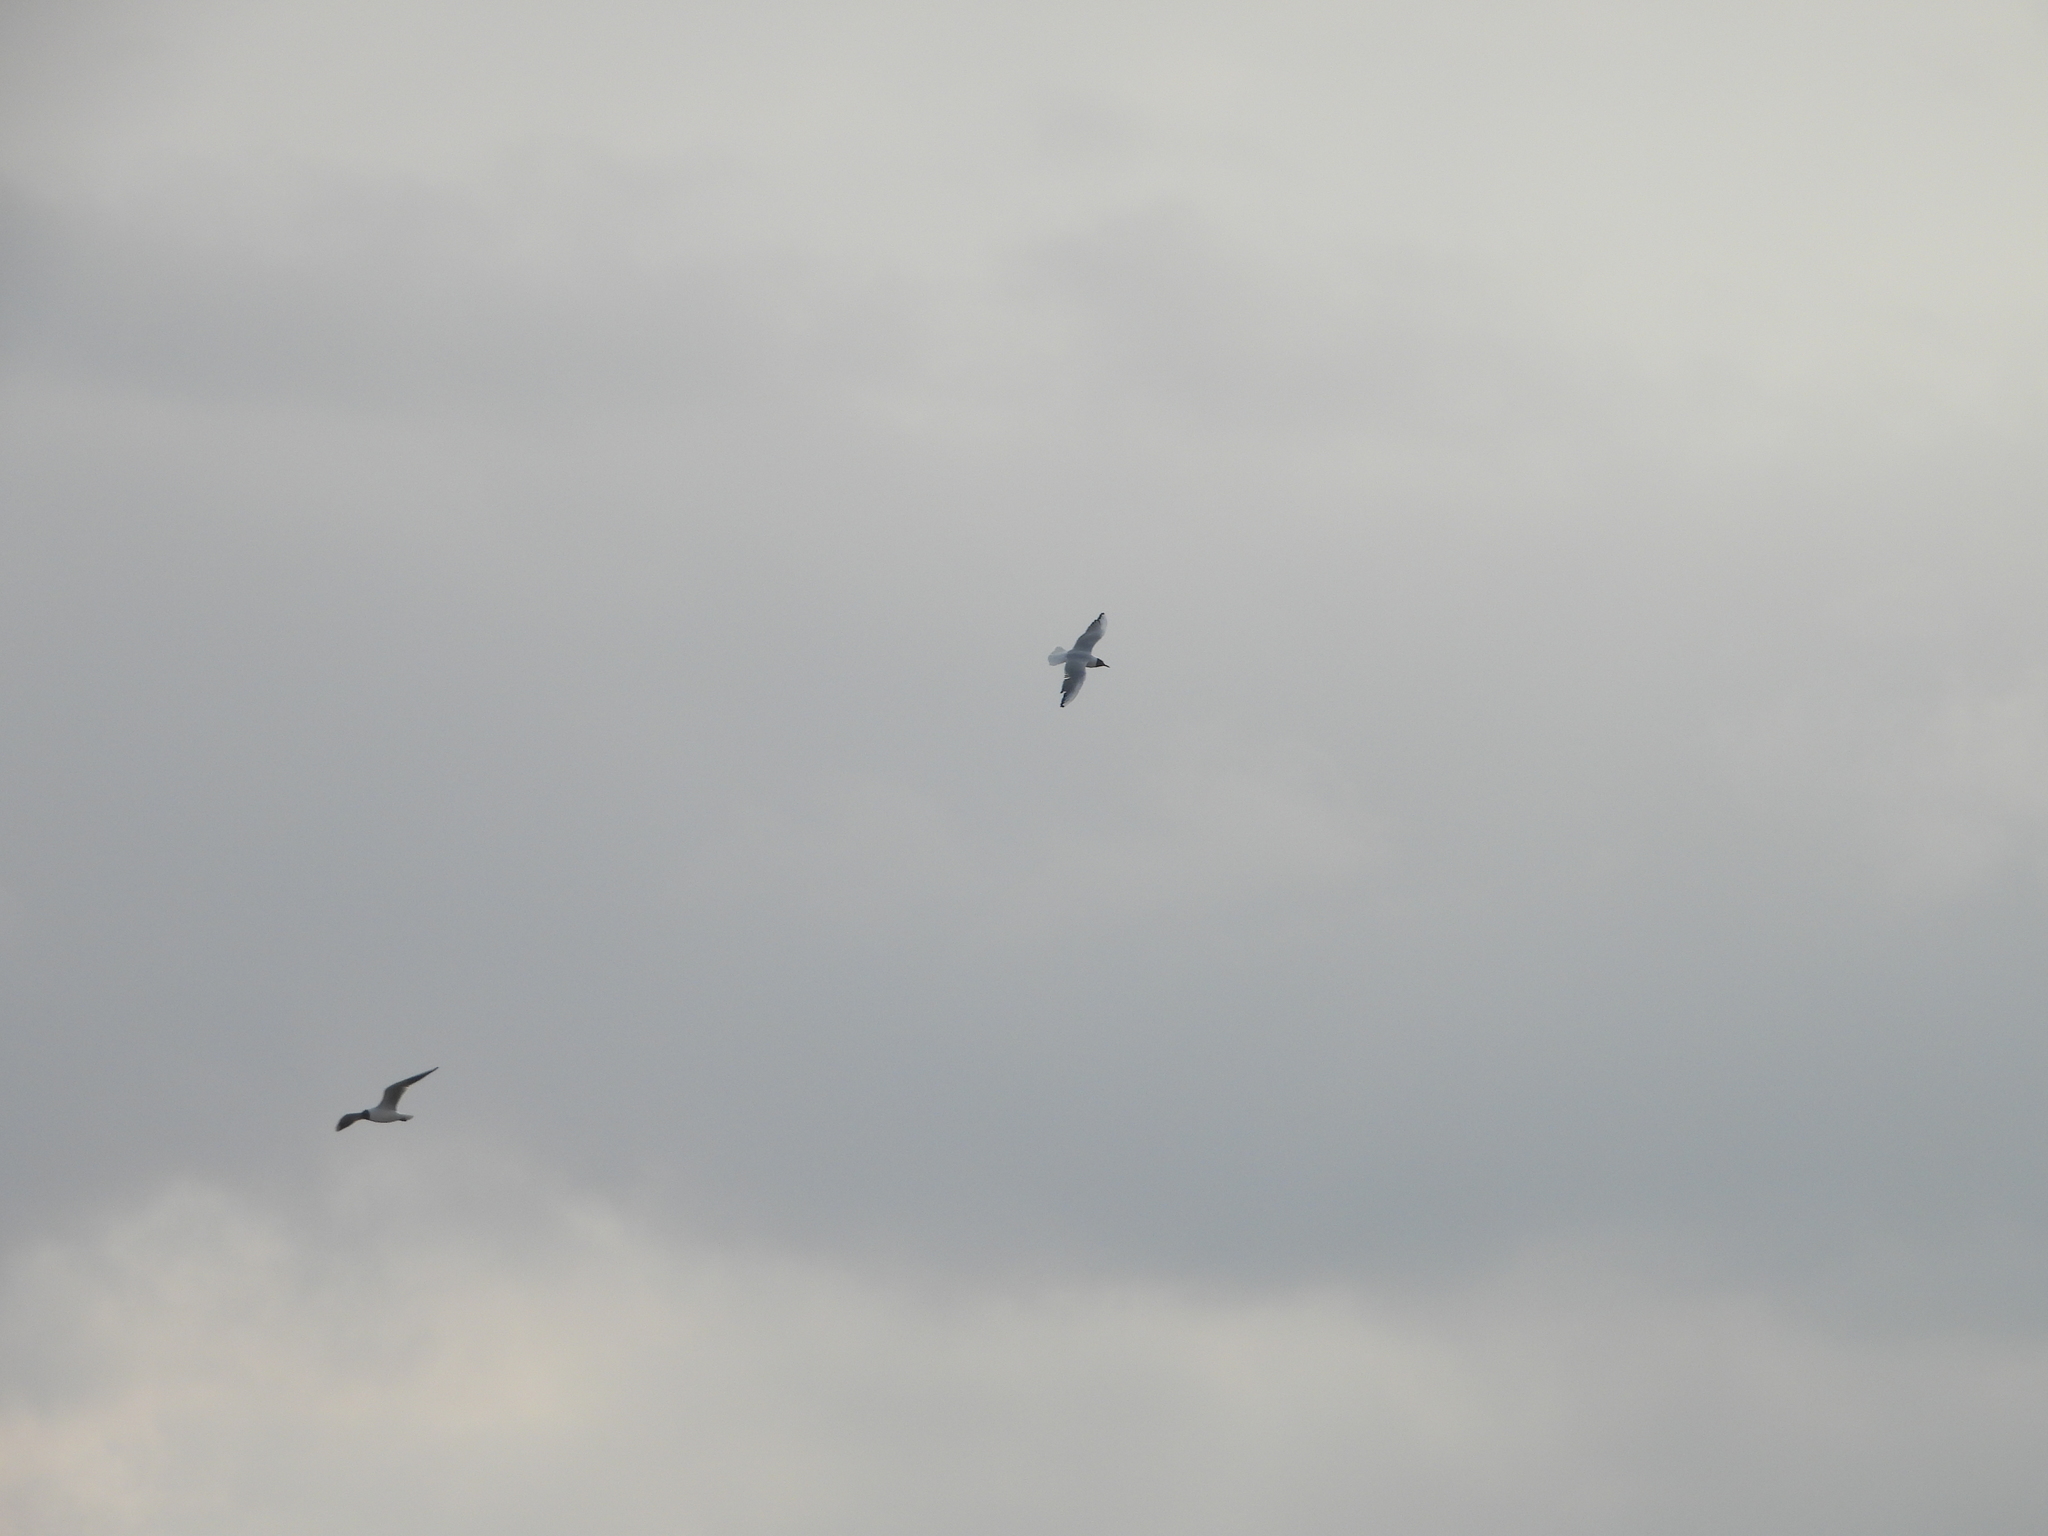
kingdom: Animalia
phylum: Chordata
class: Aves
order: Charadriiformes
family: Laridae
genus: Chroicocephalus
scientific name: Chroicocephalus ridibundus
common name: Black-headed gull
